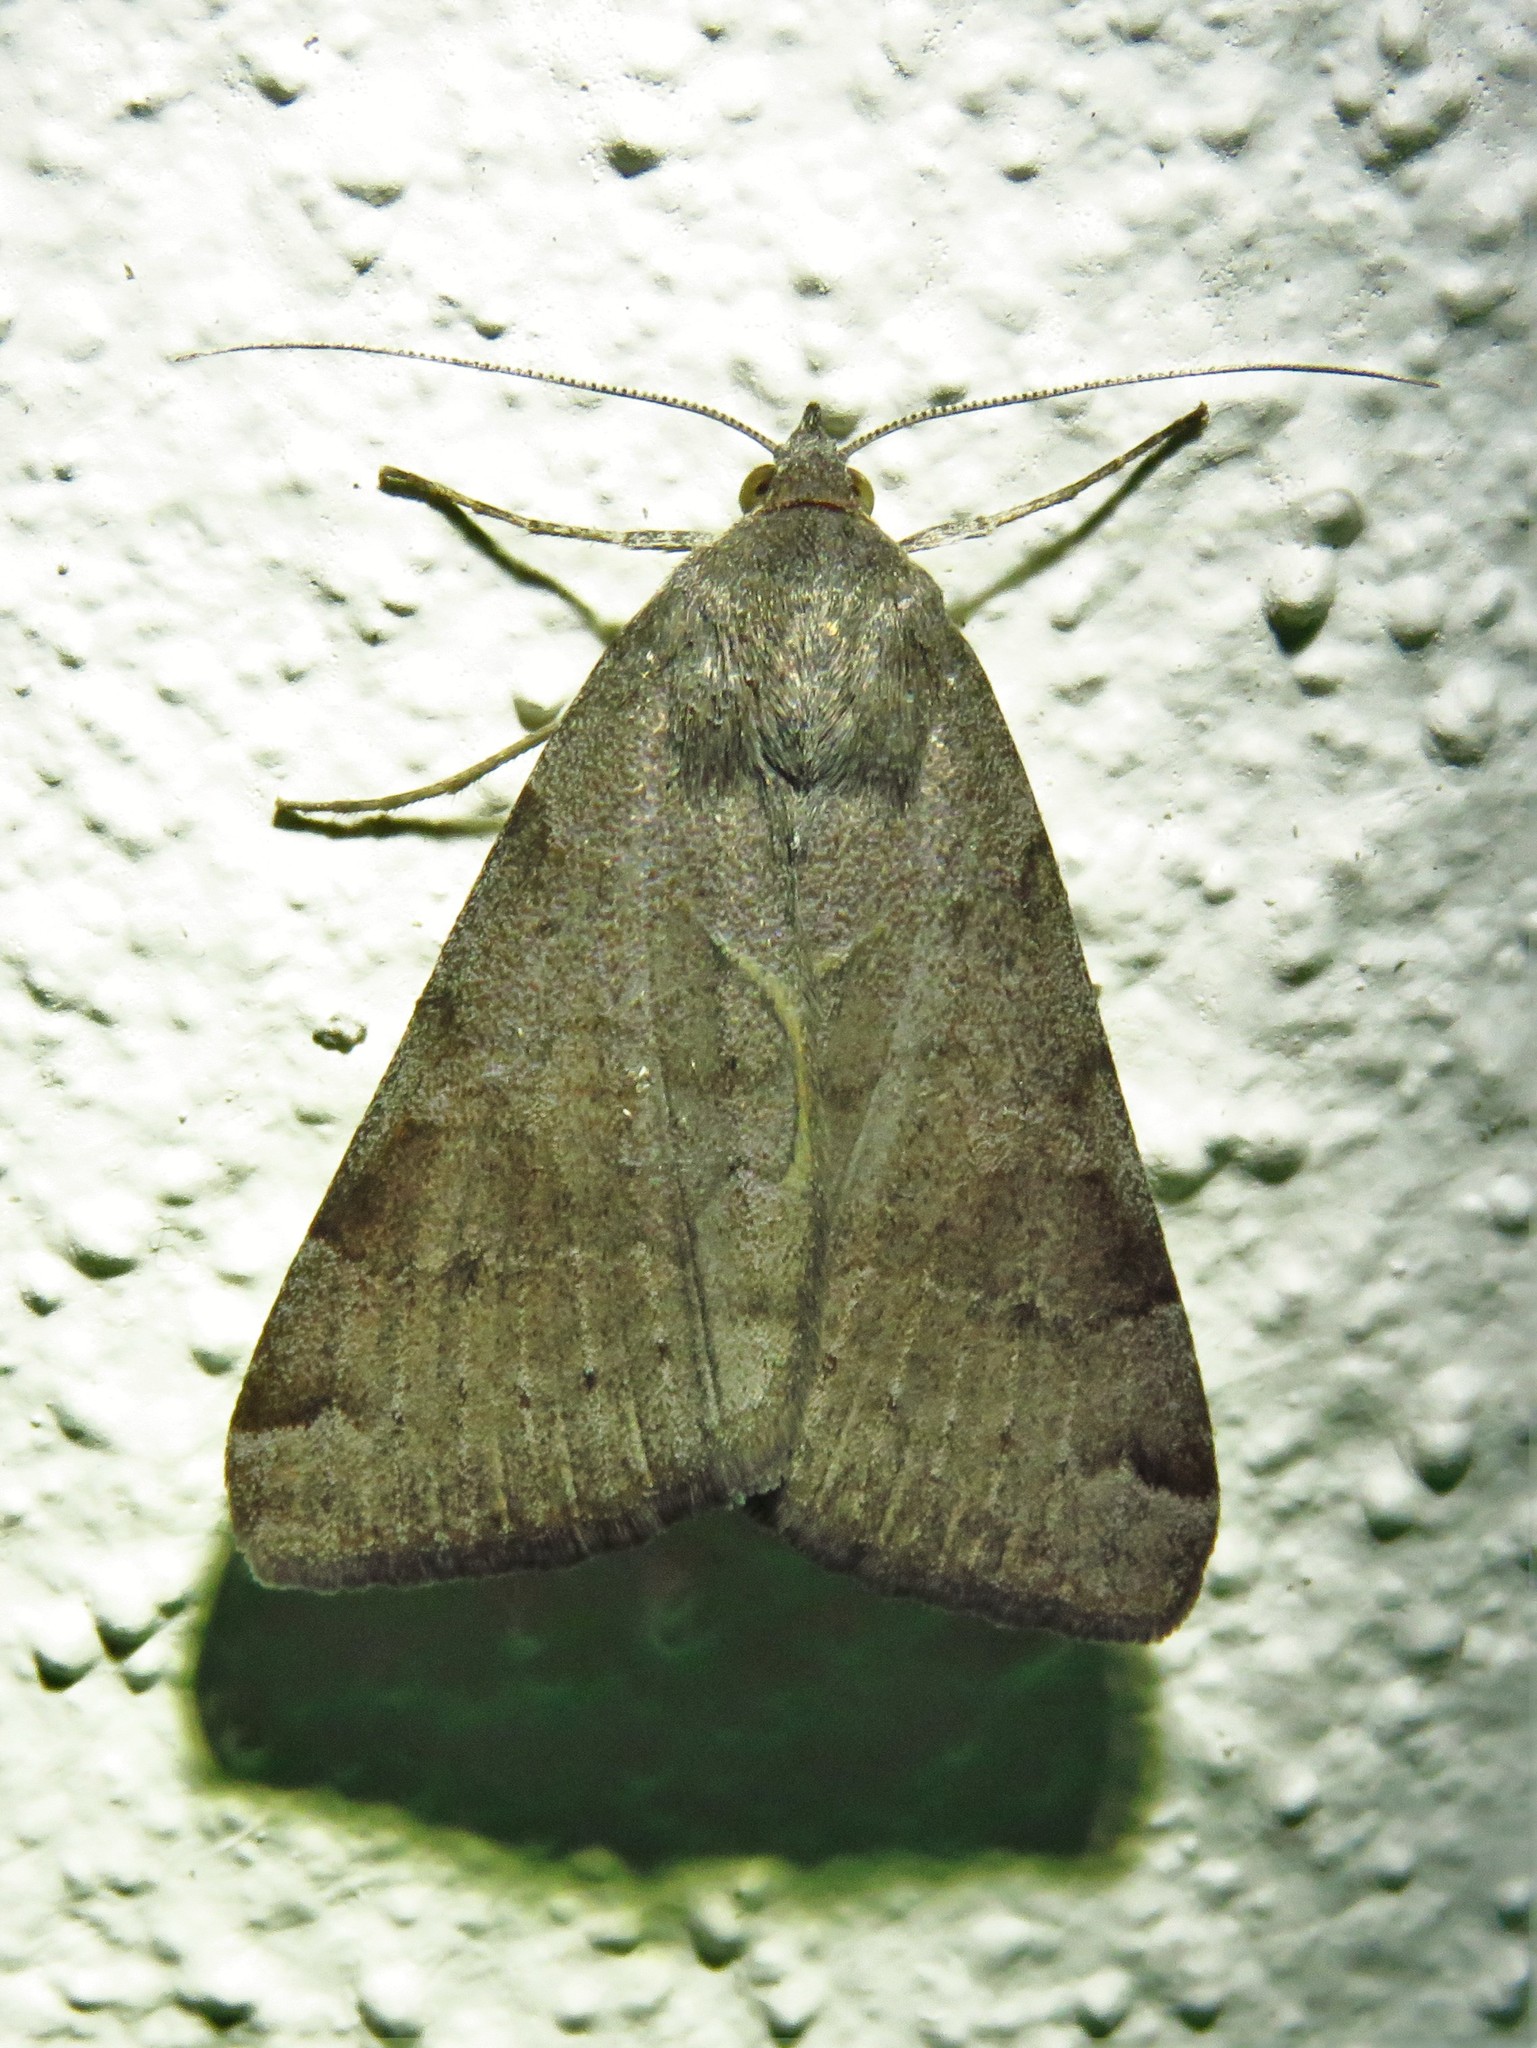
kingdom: Animalia
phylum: Arthropoda
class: Insecta
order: Lepidoptera
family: Erebidae
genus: Caenurgina
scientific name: Caenurgina erechtea
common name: Forage looper moth
